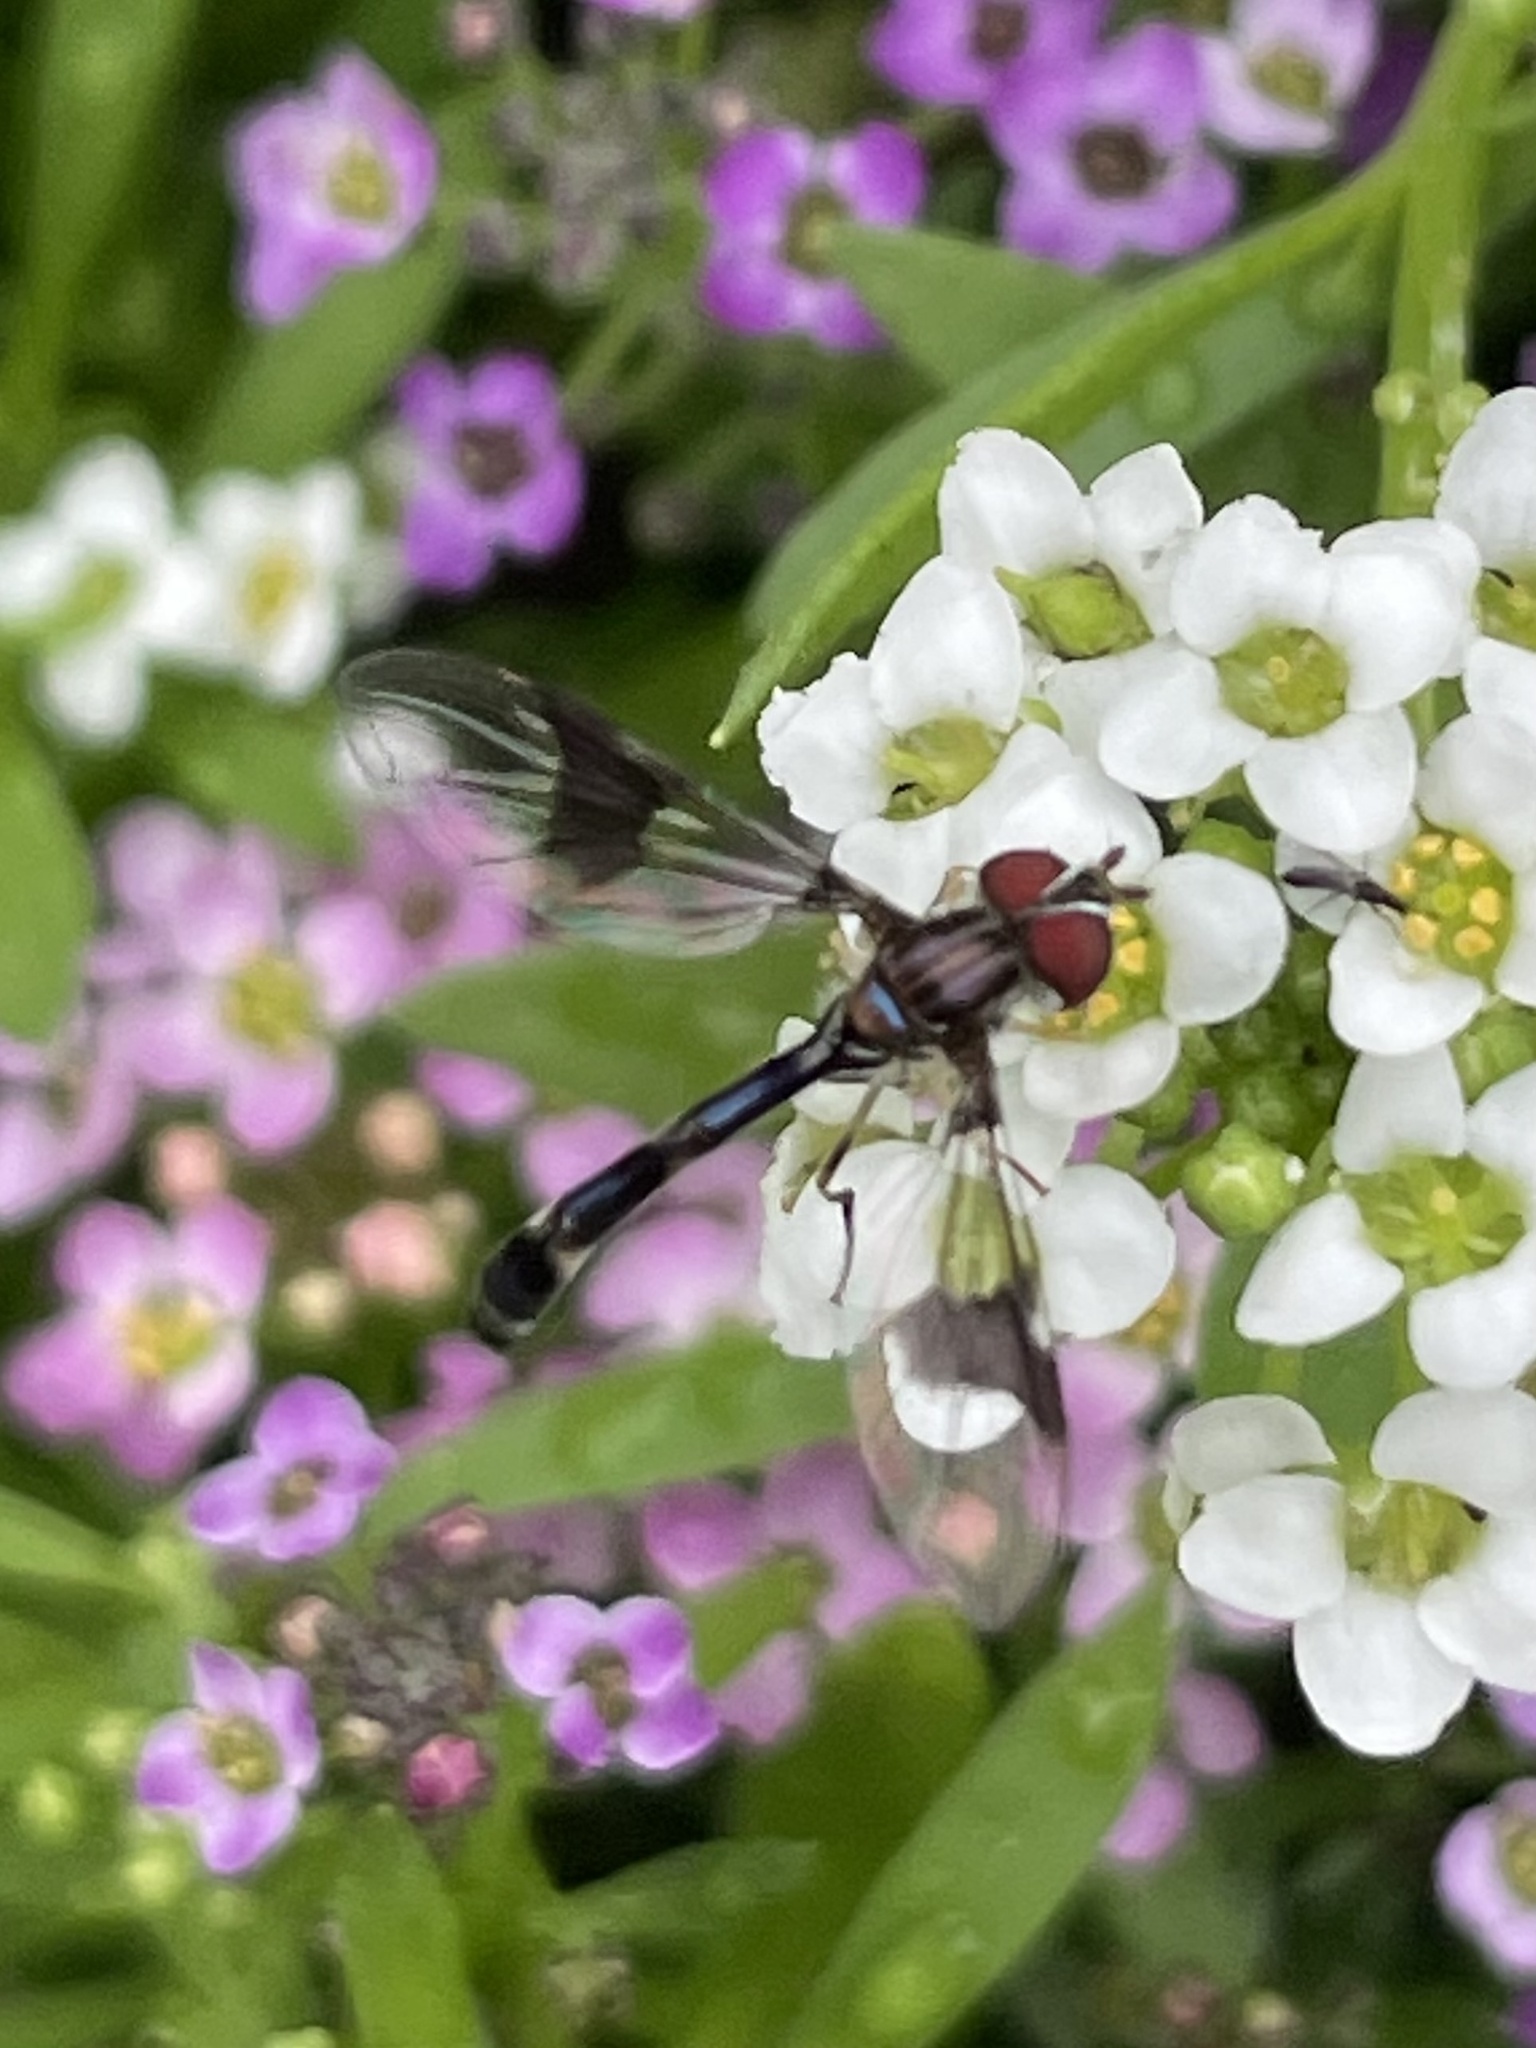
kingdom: Animalia
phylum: Arthropoda
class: Insecta
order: Diptera
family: Syrphidae
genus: Hypocritanus
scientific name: Hypocritanus fascipennis
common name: Eastern band-winged hover fly
